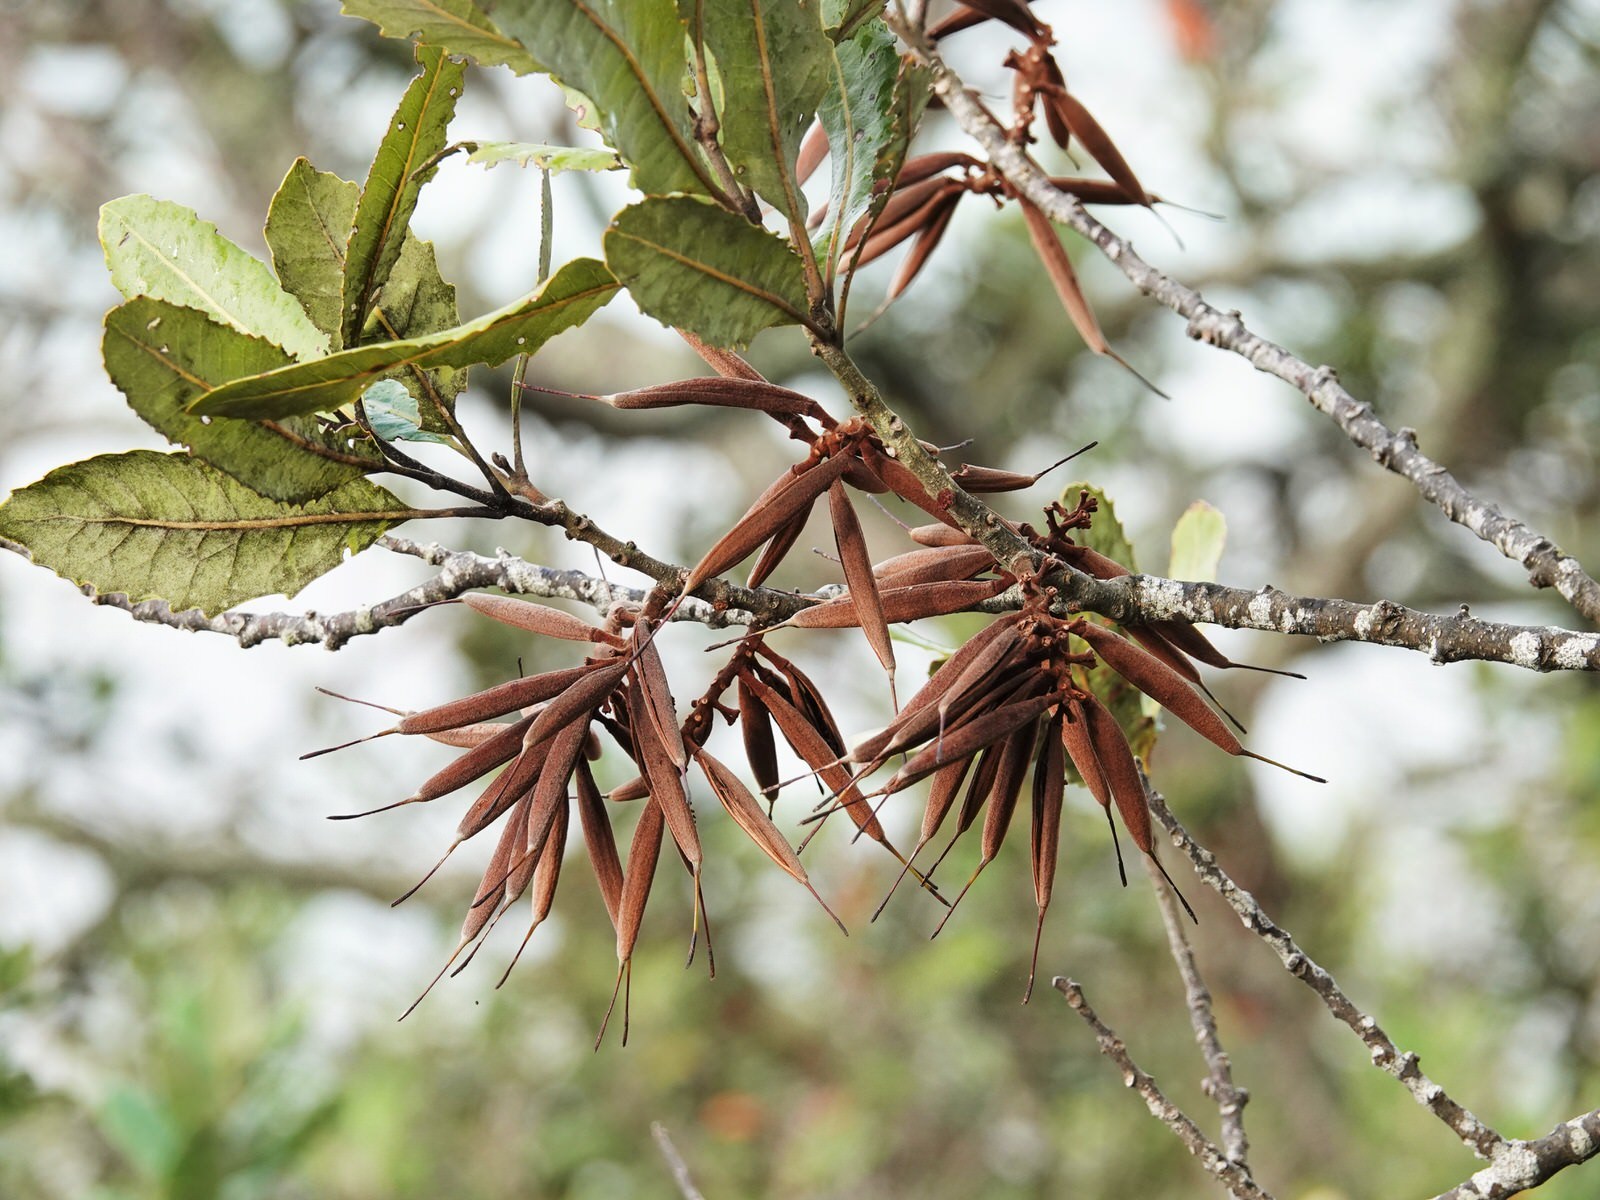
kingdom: Plantae
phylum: Tracheophyta
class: Magnoliopsida
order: Proteales
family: Proteaceae
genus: Knightia
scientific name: Knightia excelsa
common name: New zealand-honeysuckle
